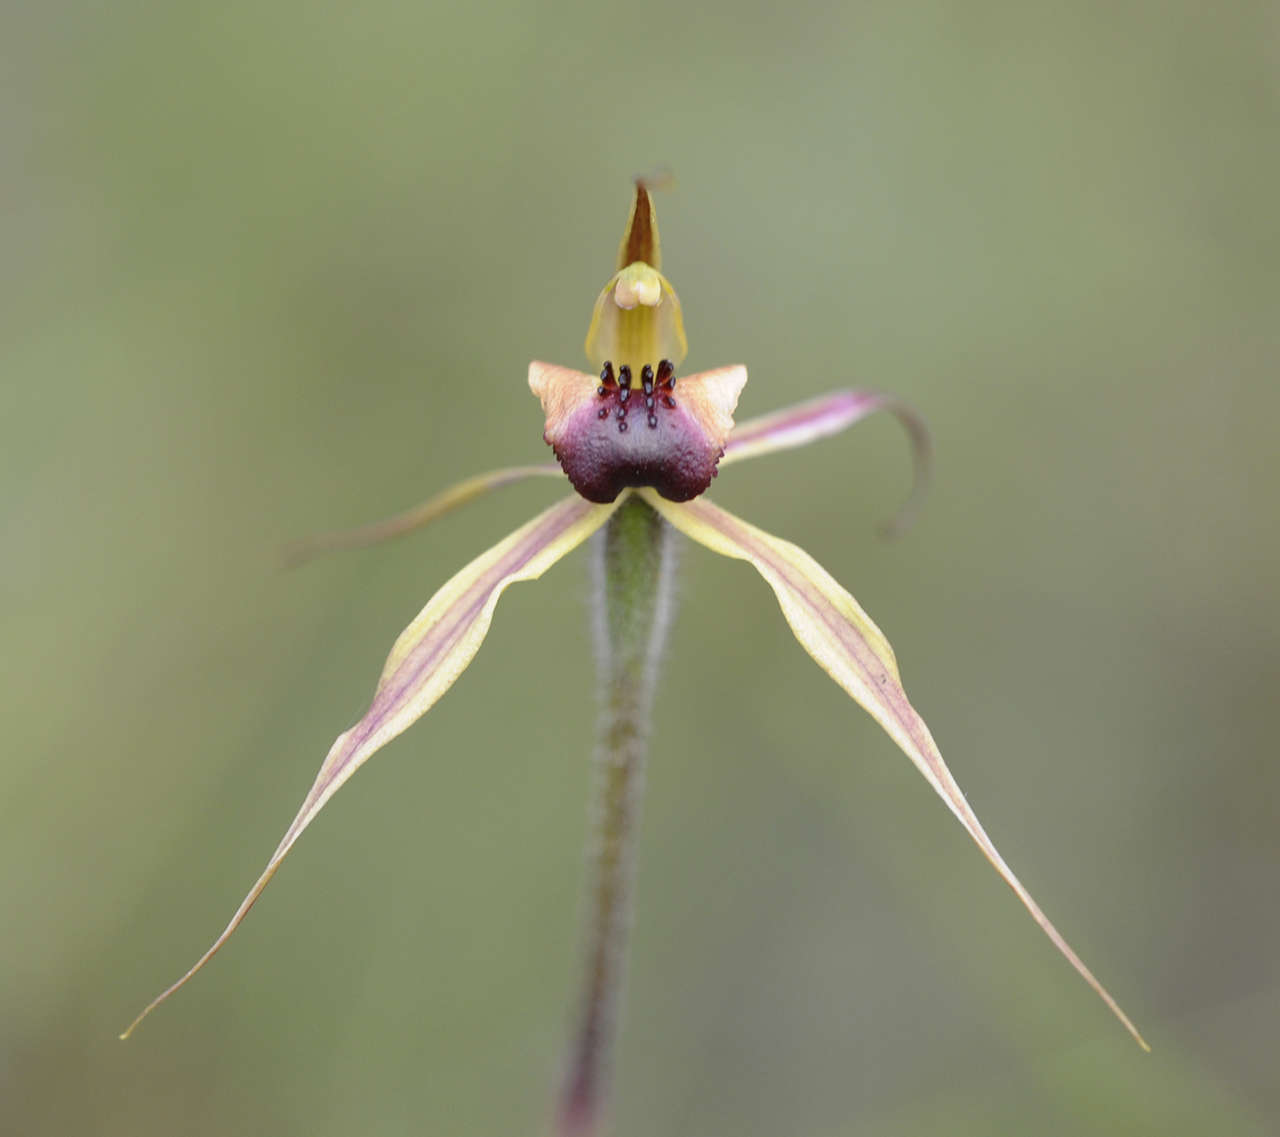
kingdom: Plantae
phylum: Tracheophyta
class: Liliopsida
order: Asparagales
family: Orchidaceae
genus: Caladenia
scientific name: Caladenia clavigera
